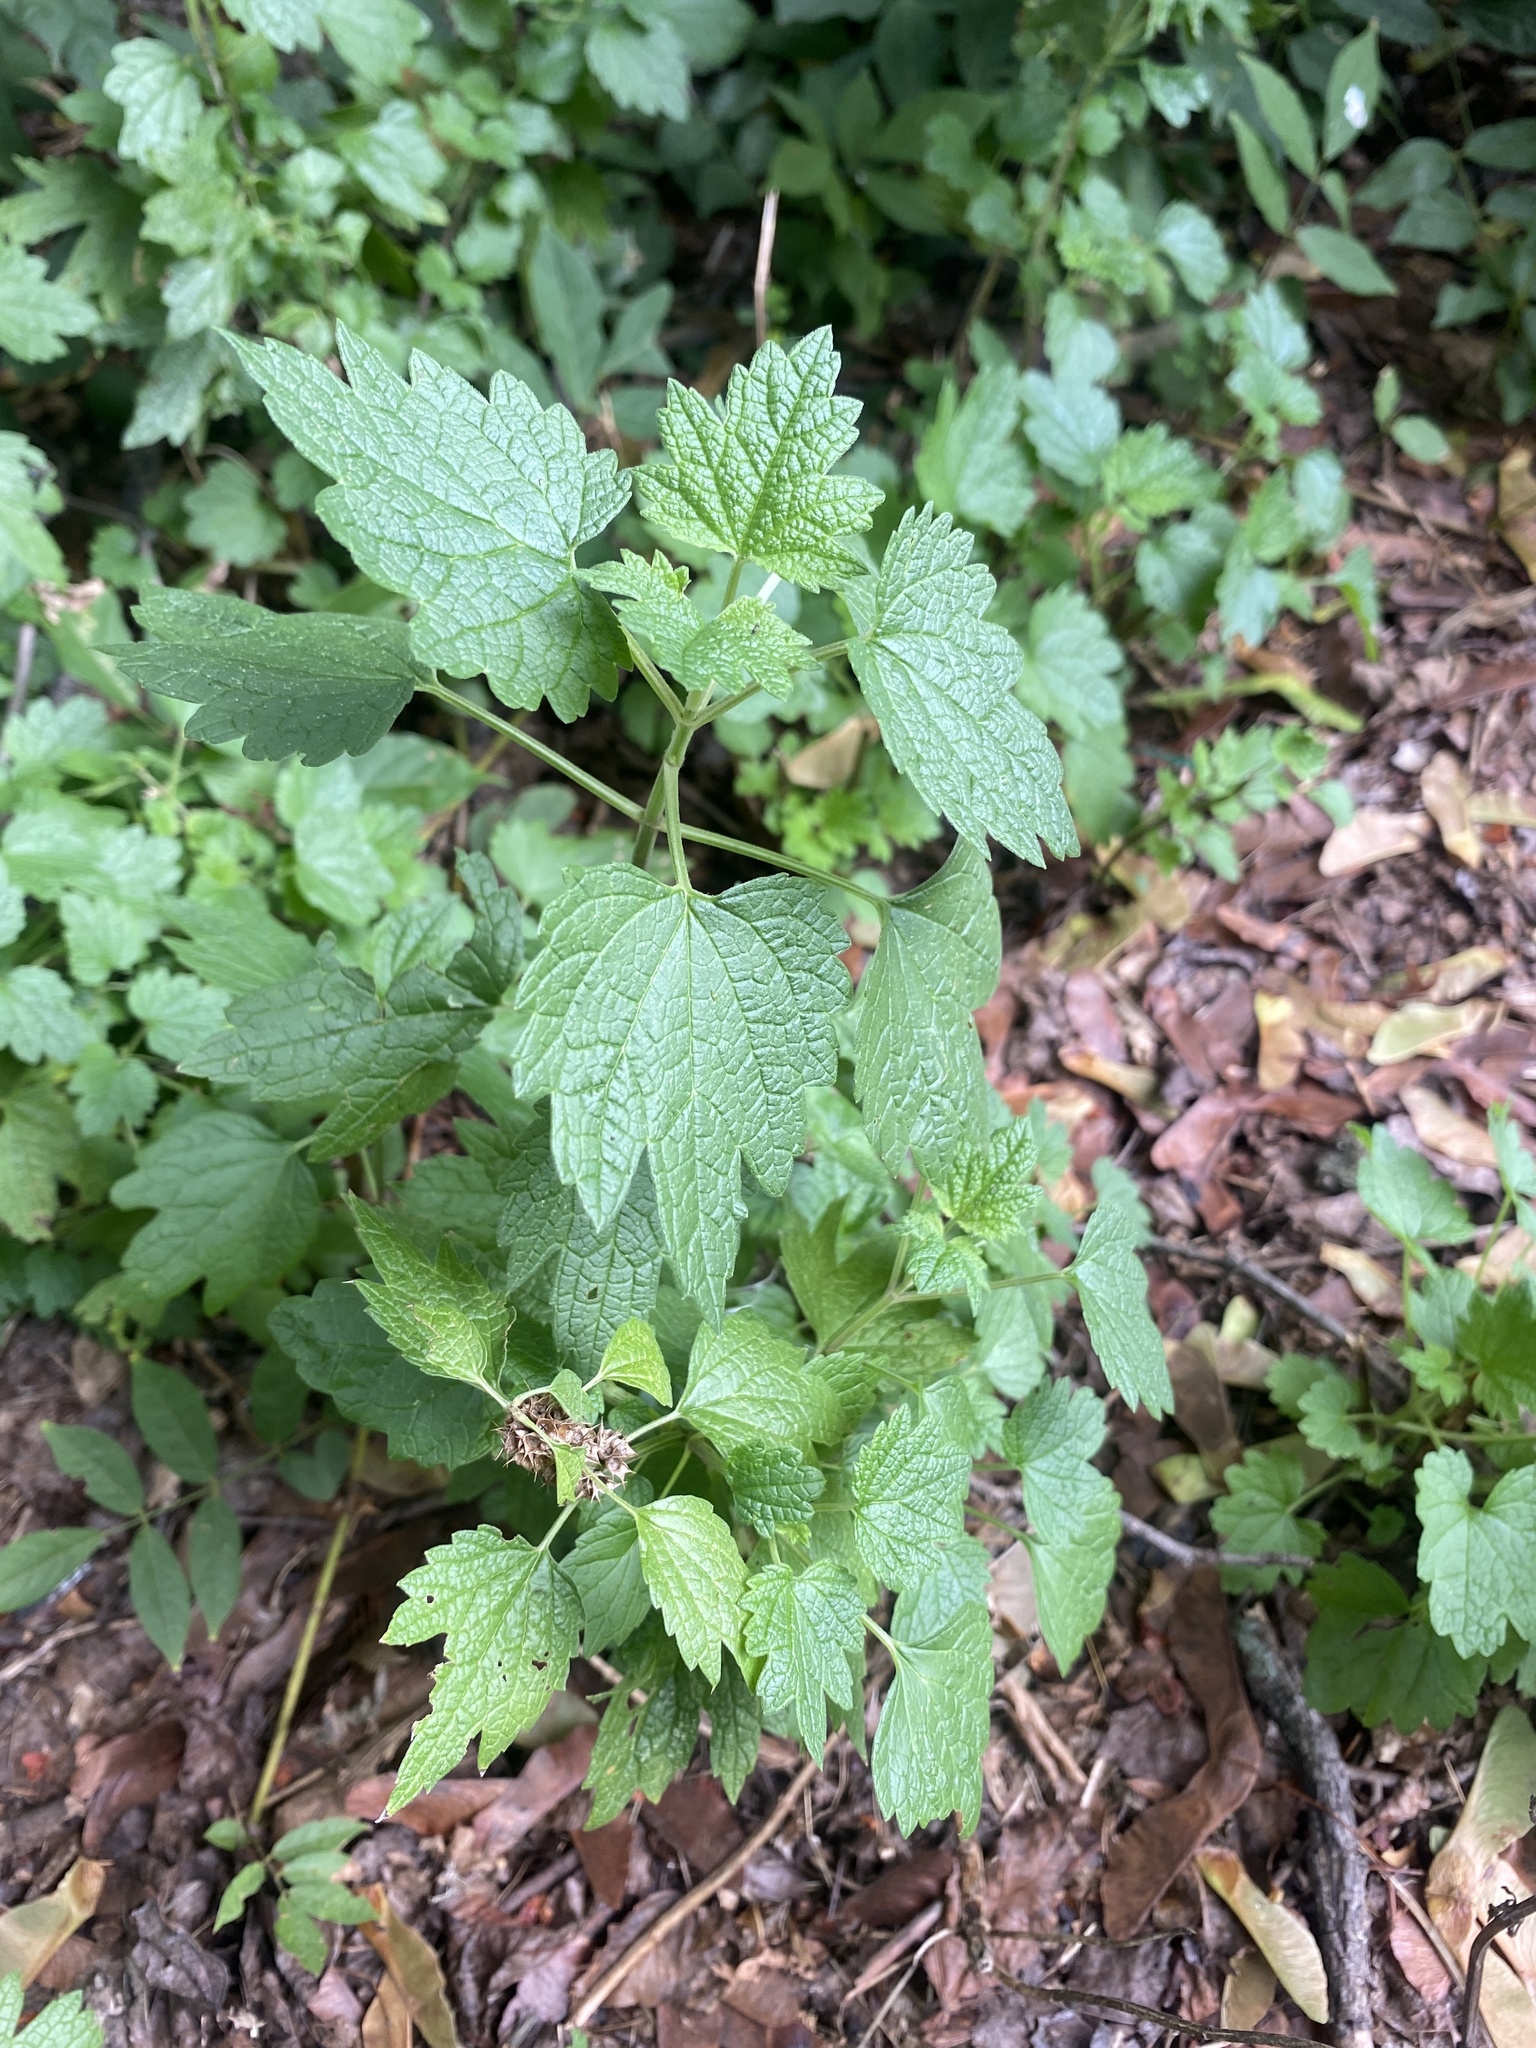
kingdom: Plantae
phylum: Tracheophyta
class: Magnoliopsida
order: Lamiales
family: Lamiaceae
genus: Leonurus
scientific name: Leonurus cardiaca
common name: Motherwort
